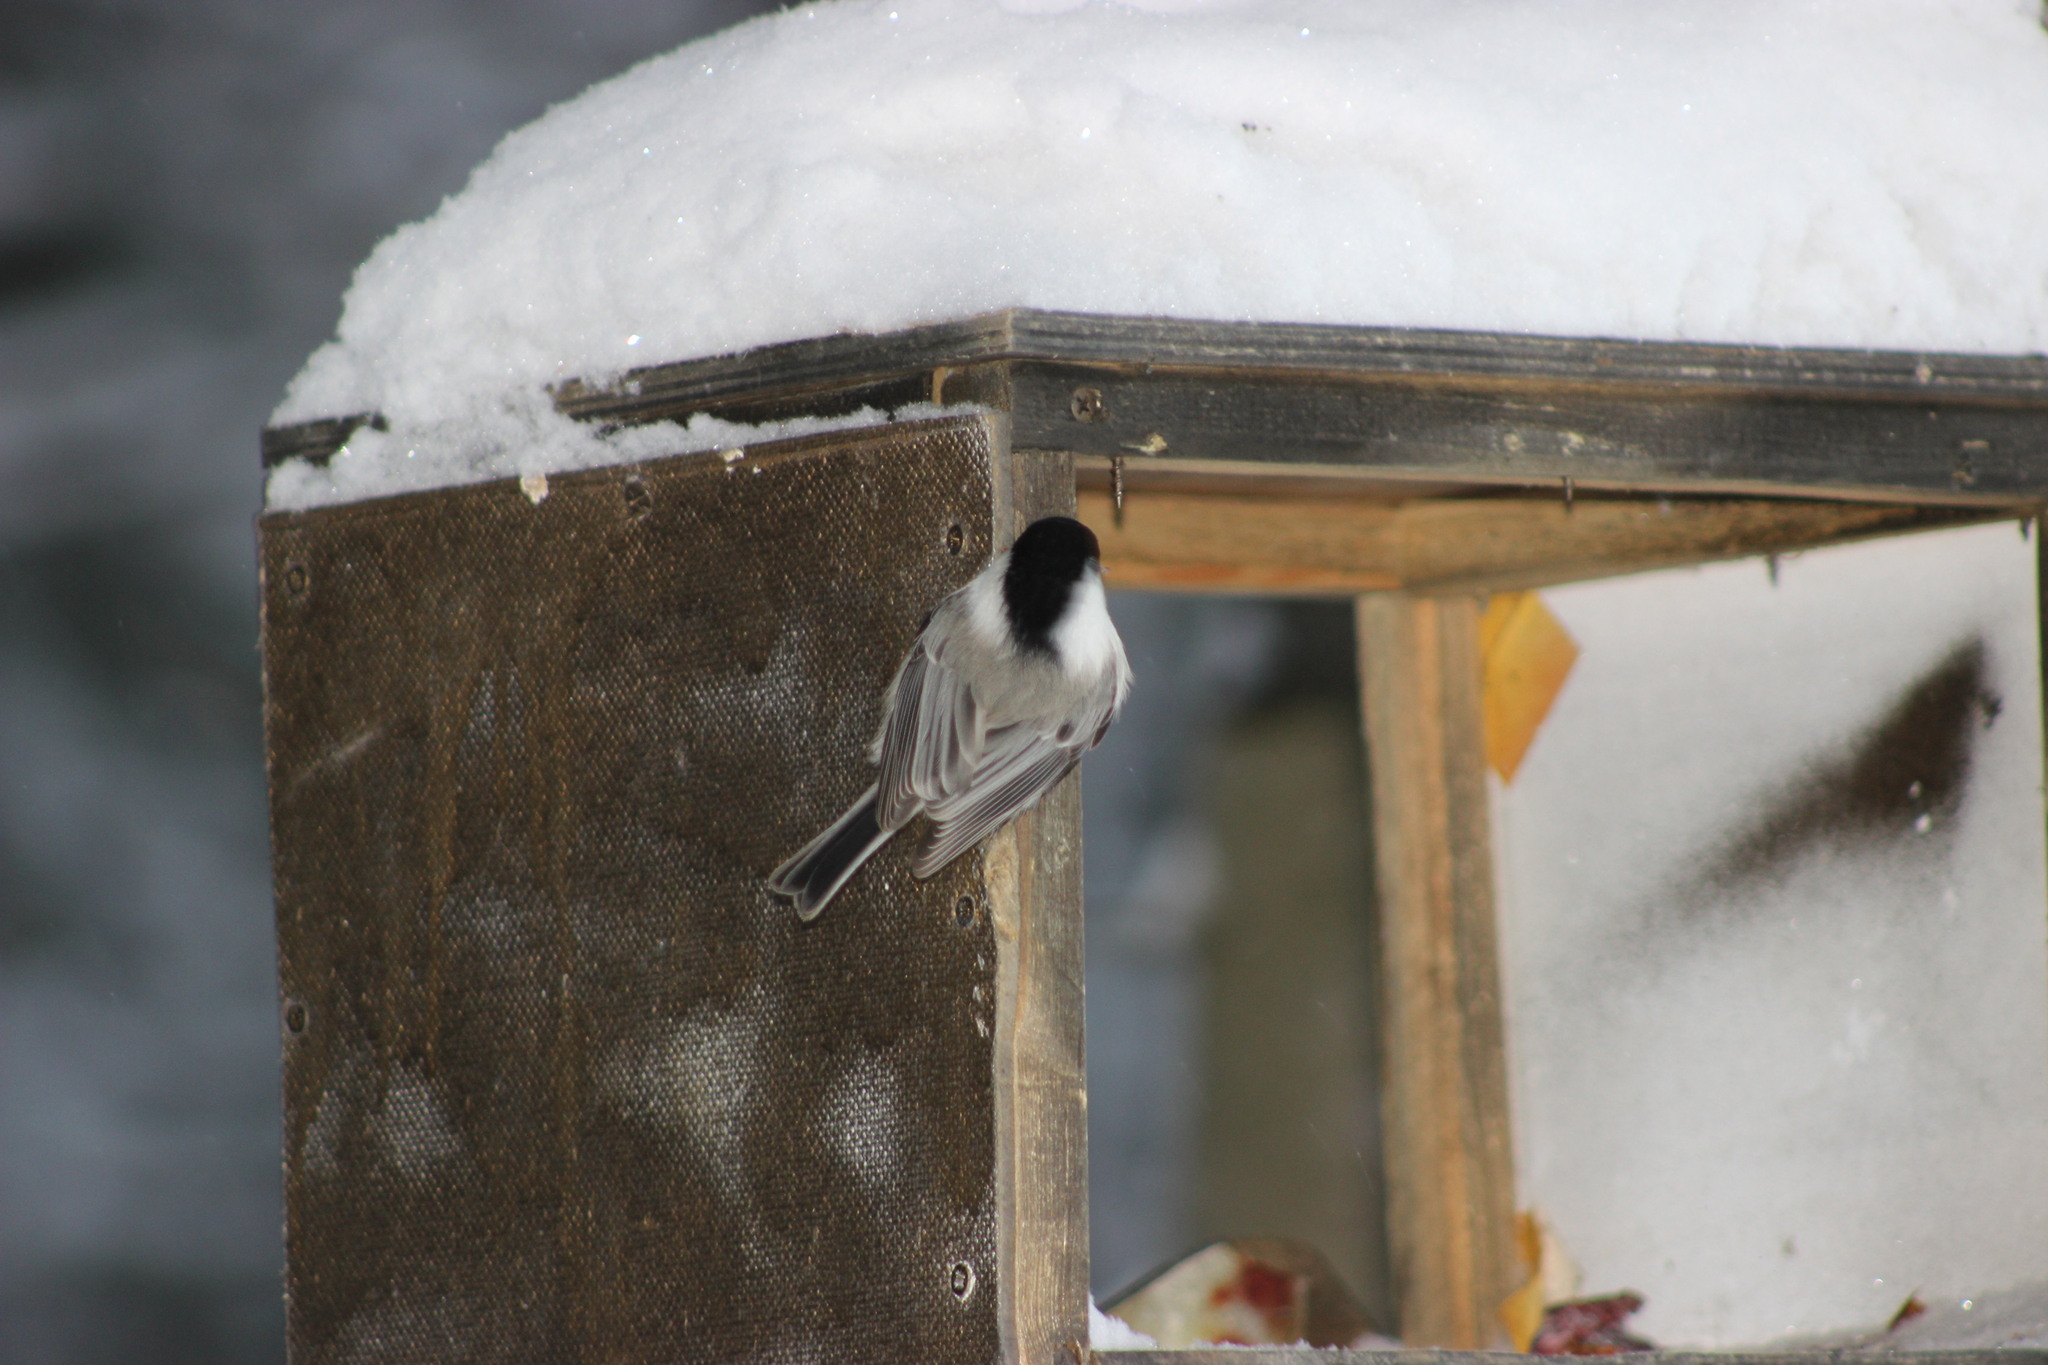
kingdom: Animalia
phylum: Chordata
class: Aves
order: Passeriformes
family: Paridae
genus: Poecile
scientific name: Poecile montanus
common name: Willow tit
